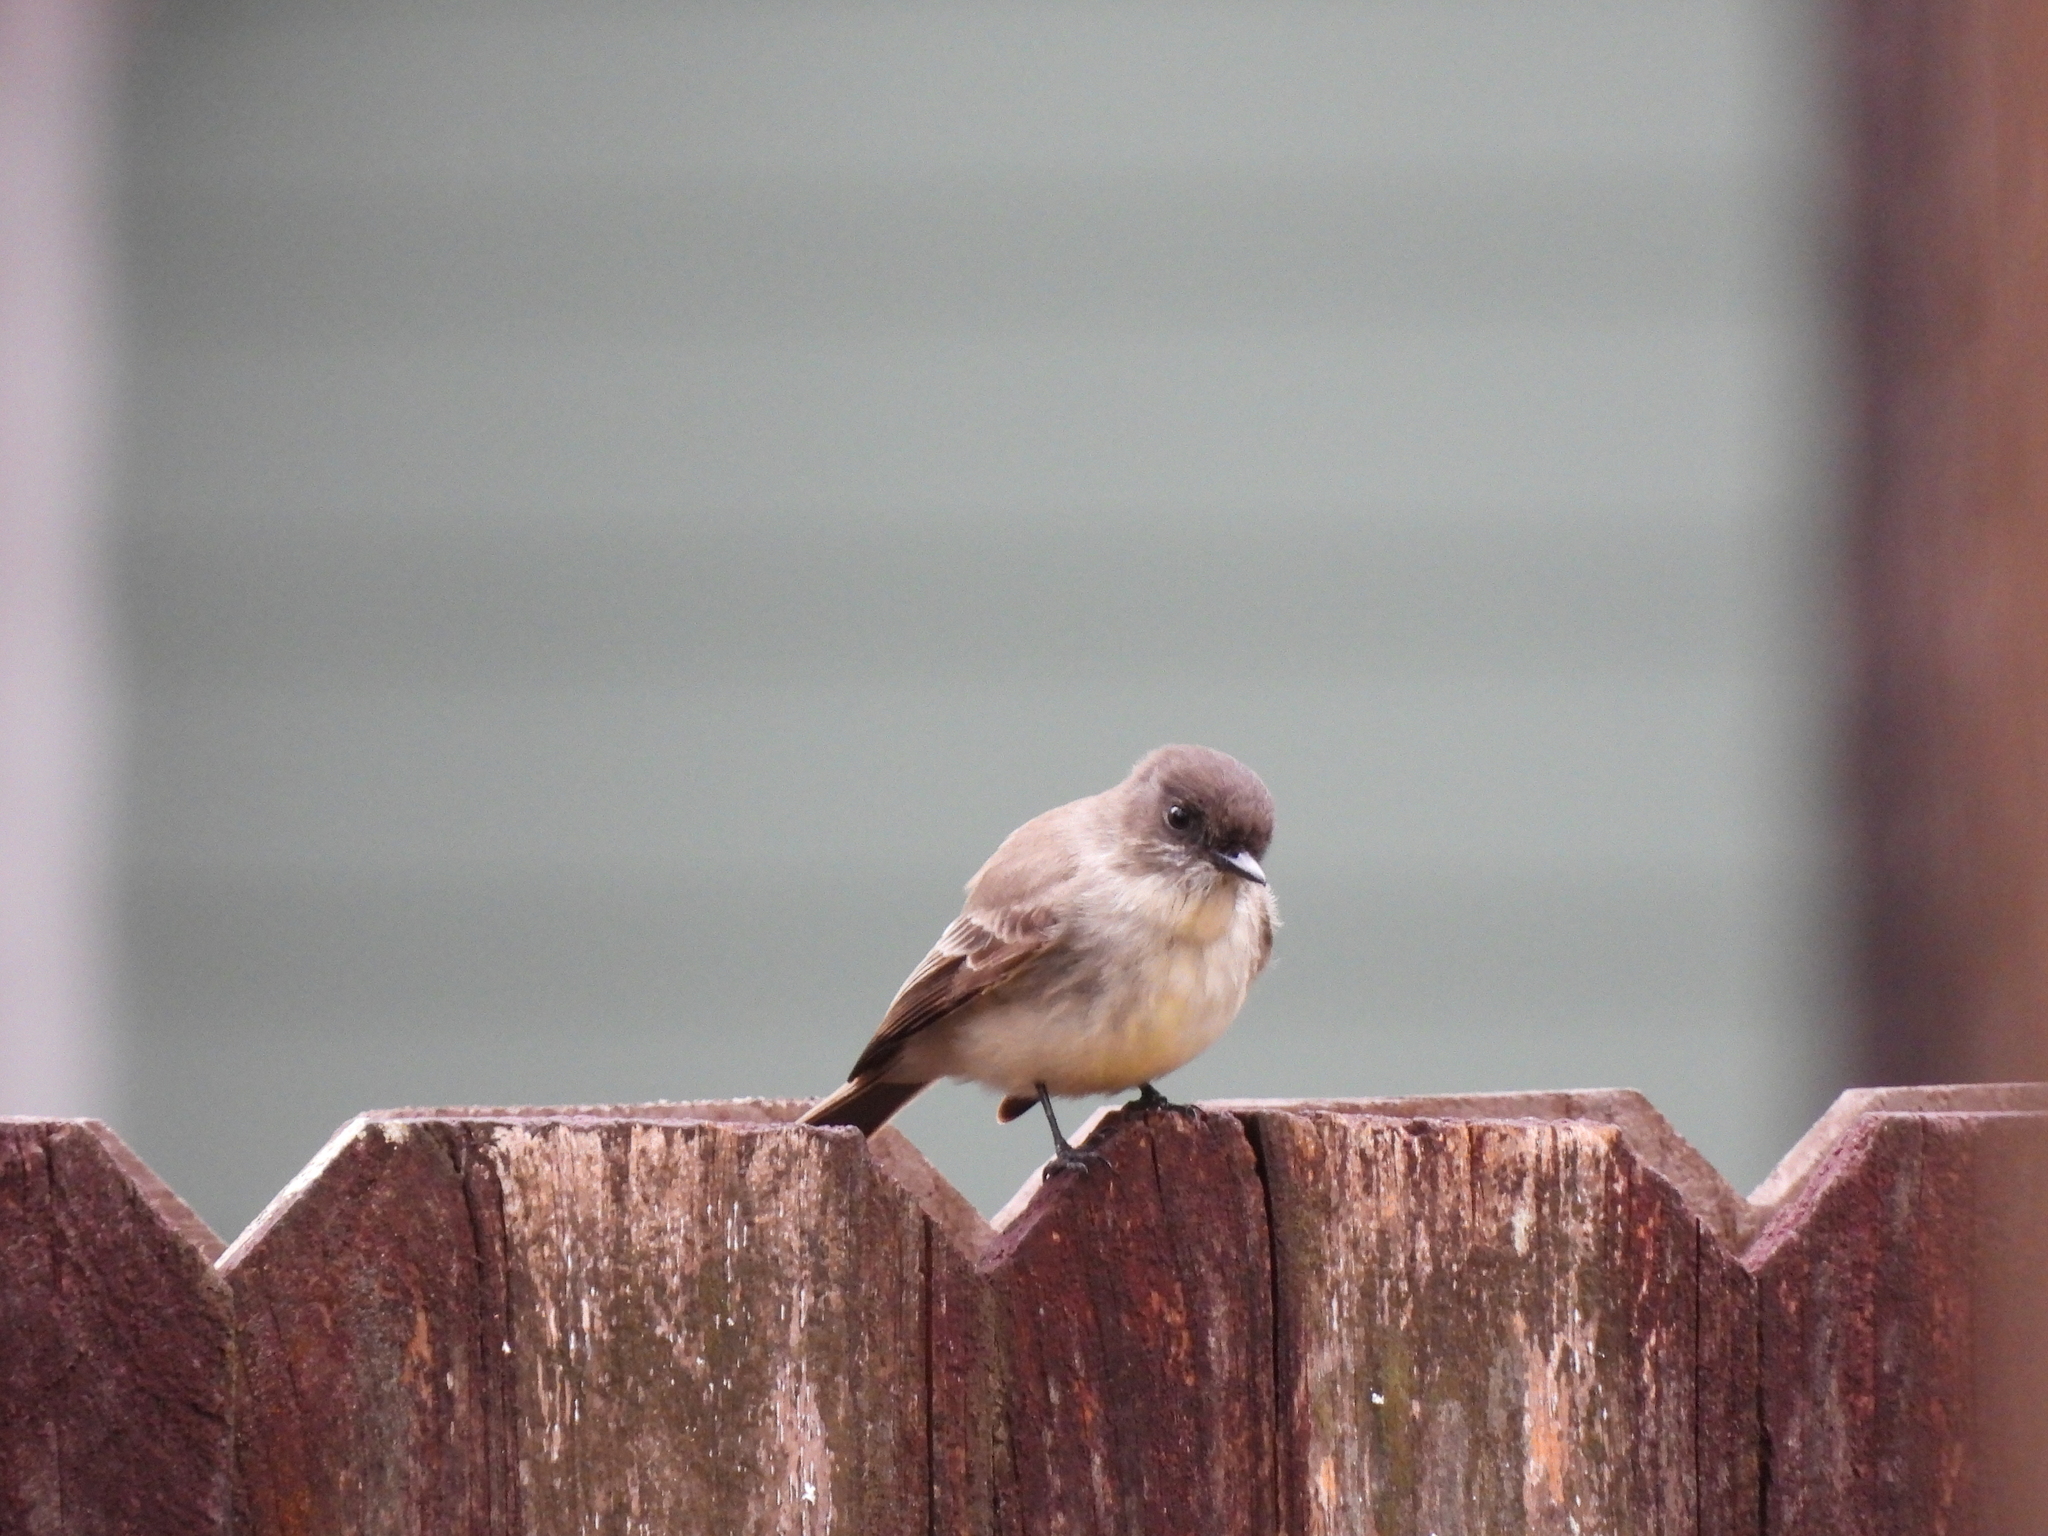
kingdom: Animalia
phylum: Chordata
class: Aves
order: Passeriformes
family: Tyrannidae
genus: Sayornis
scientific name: Sayornis phoebe
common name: Eastern phoebe
